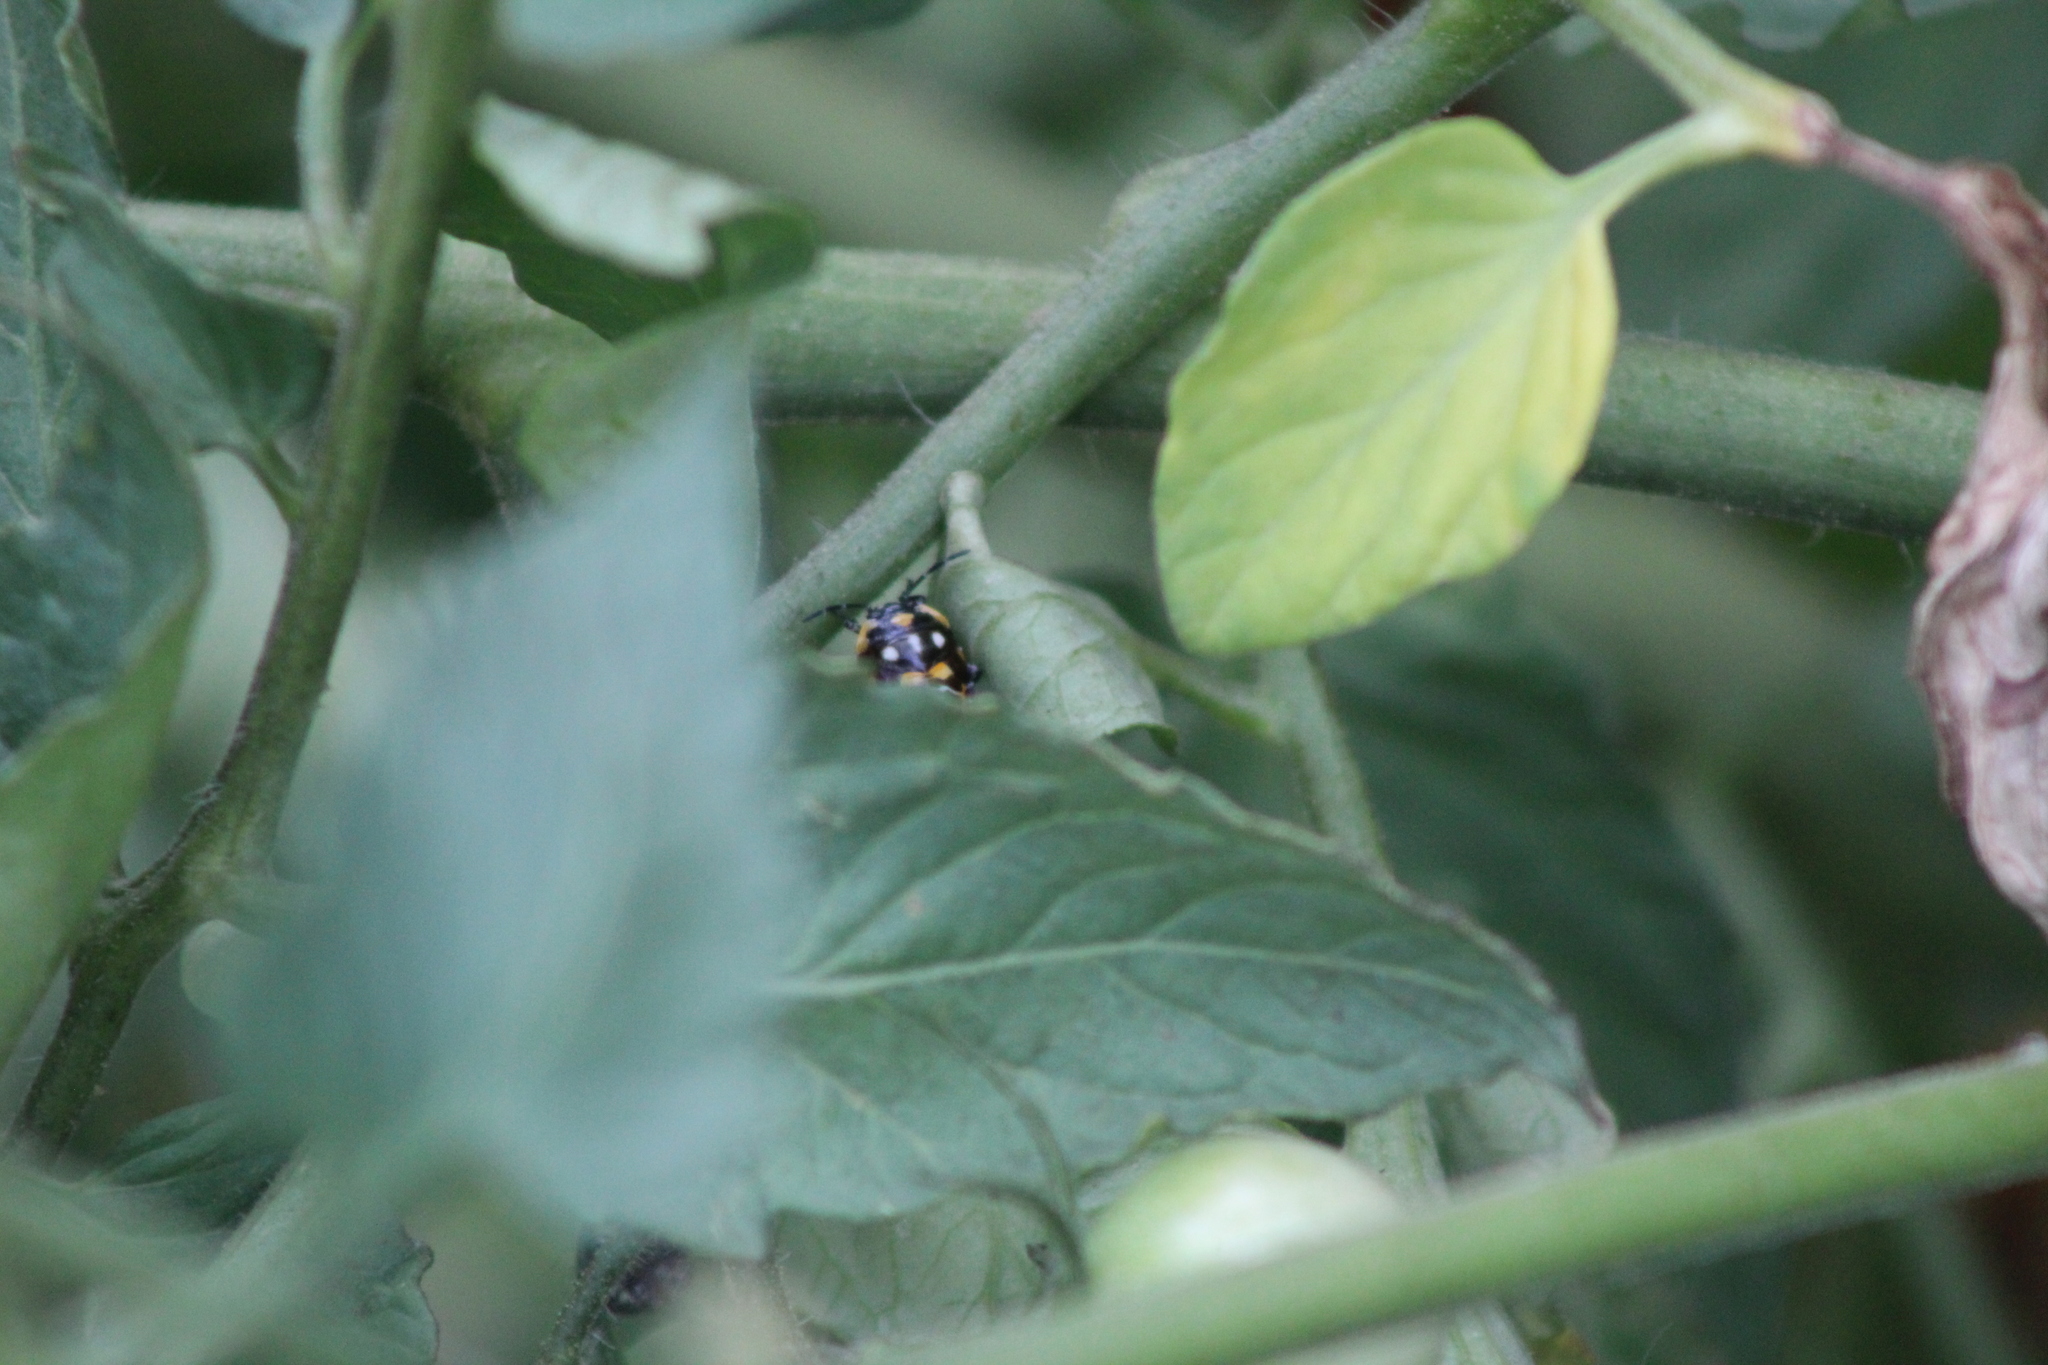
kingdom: Animalia
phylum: Arthropoda
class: Insecta
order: Hemiptera
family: Pentatomidae
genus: Murgantia
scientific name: Murgantia histrionica
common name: Harlequin bug
